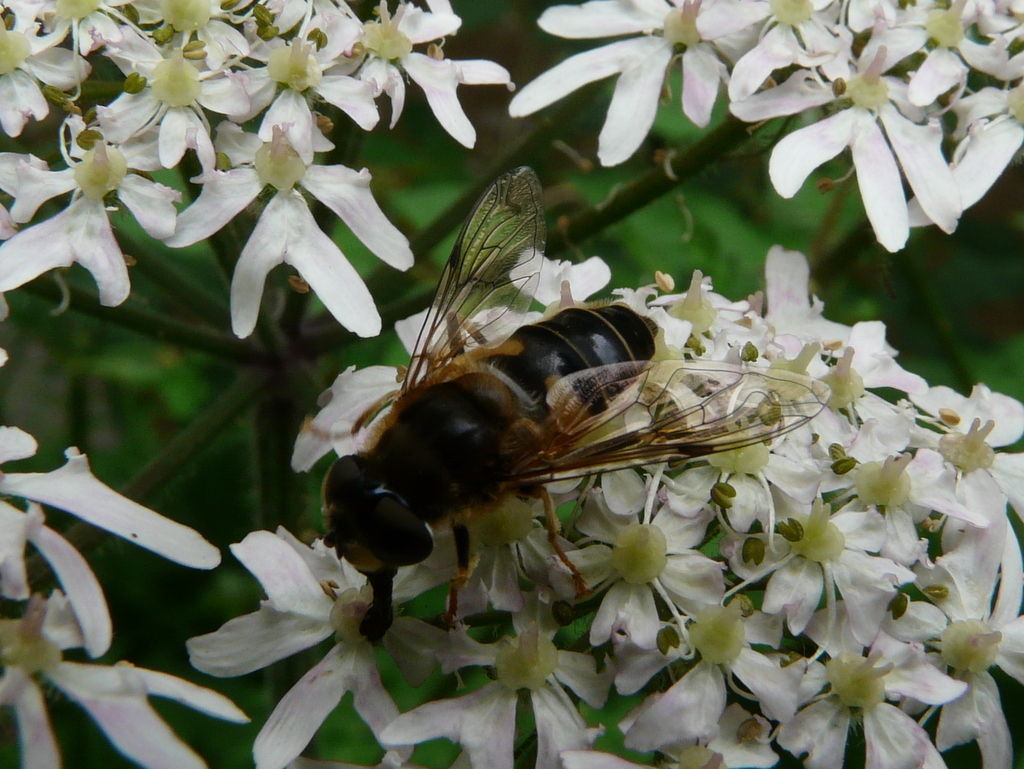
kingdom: Animalia
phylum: Arthropoda
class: Insecta
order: Diptera
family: Syrphidae
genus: Eristalis
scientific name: Eristalis pertinax
